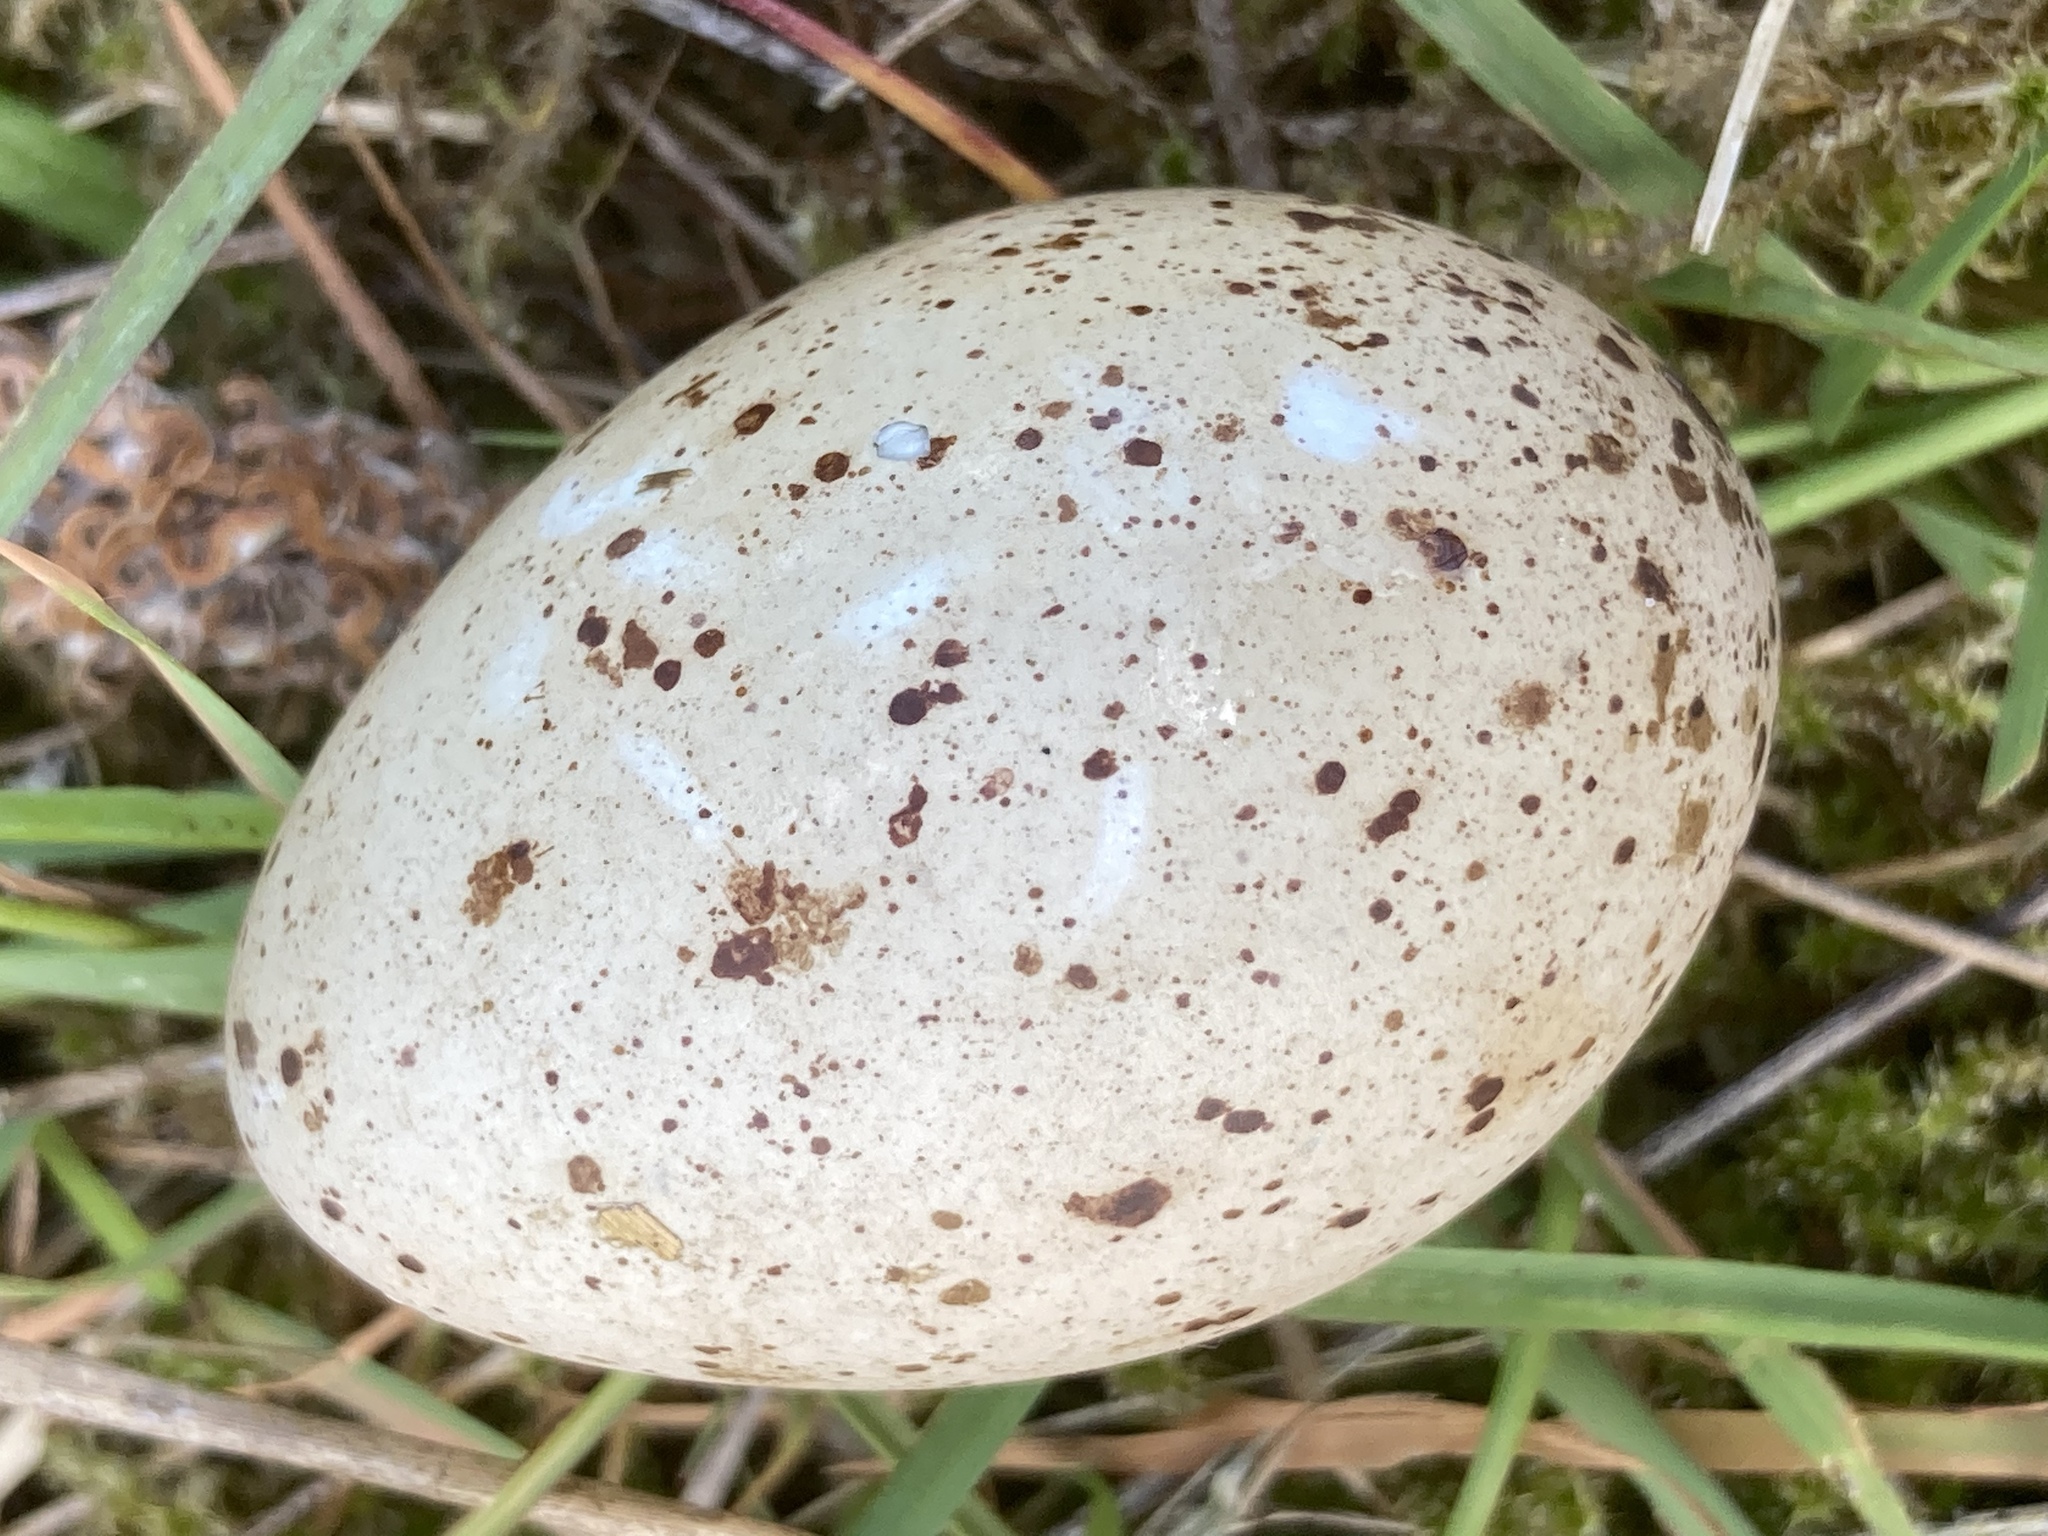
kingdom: Animalia
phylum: Chordata
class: Aves
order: Gruiformes
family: Rallidae
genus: Fulica
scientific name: Fulica atra
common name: Eurasian coot
